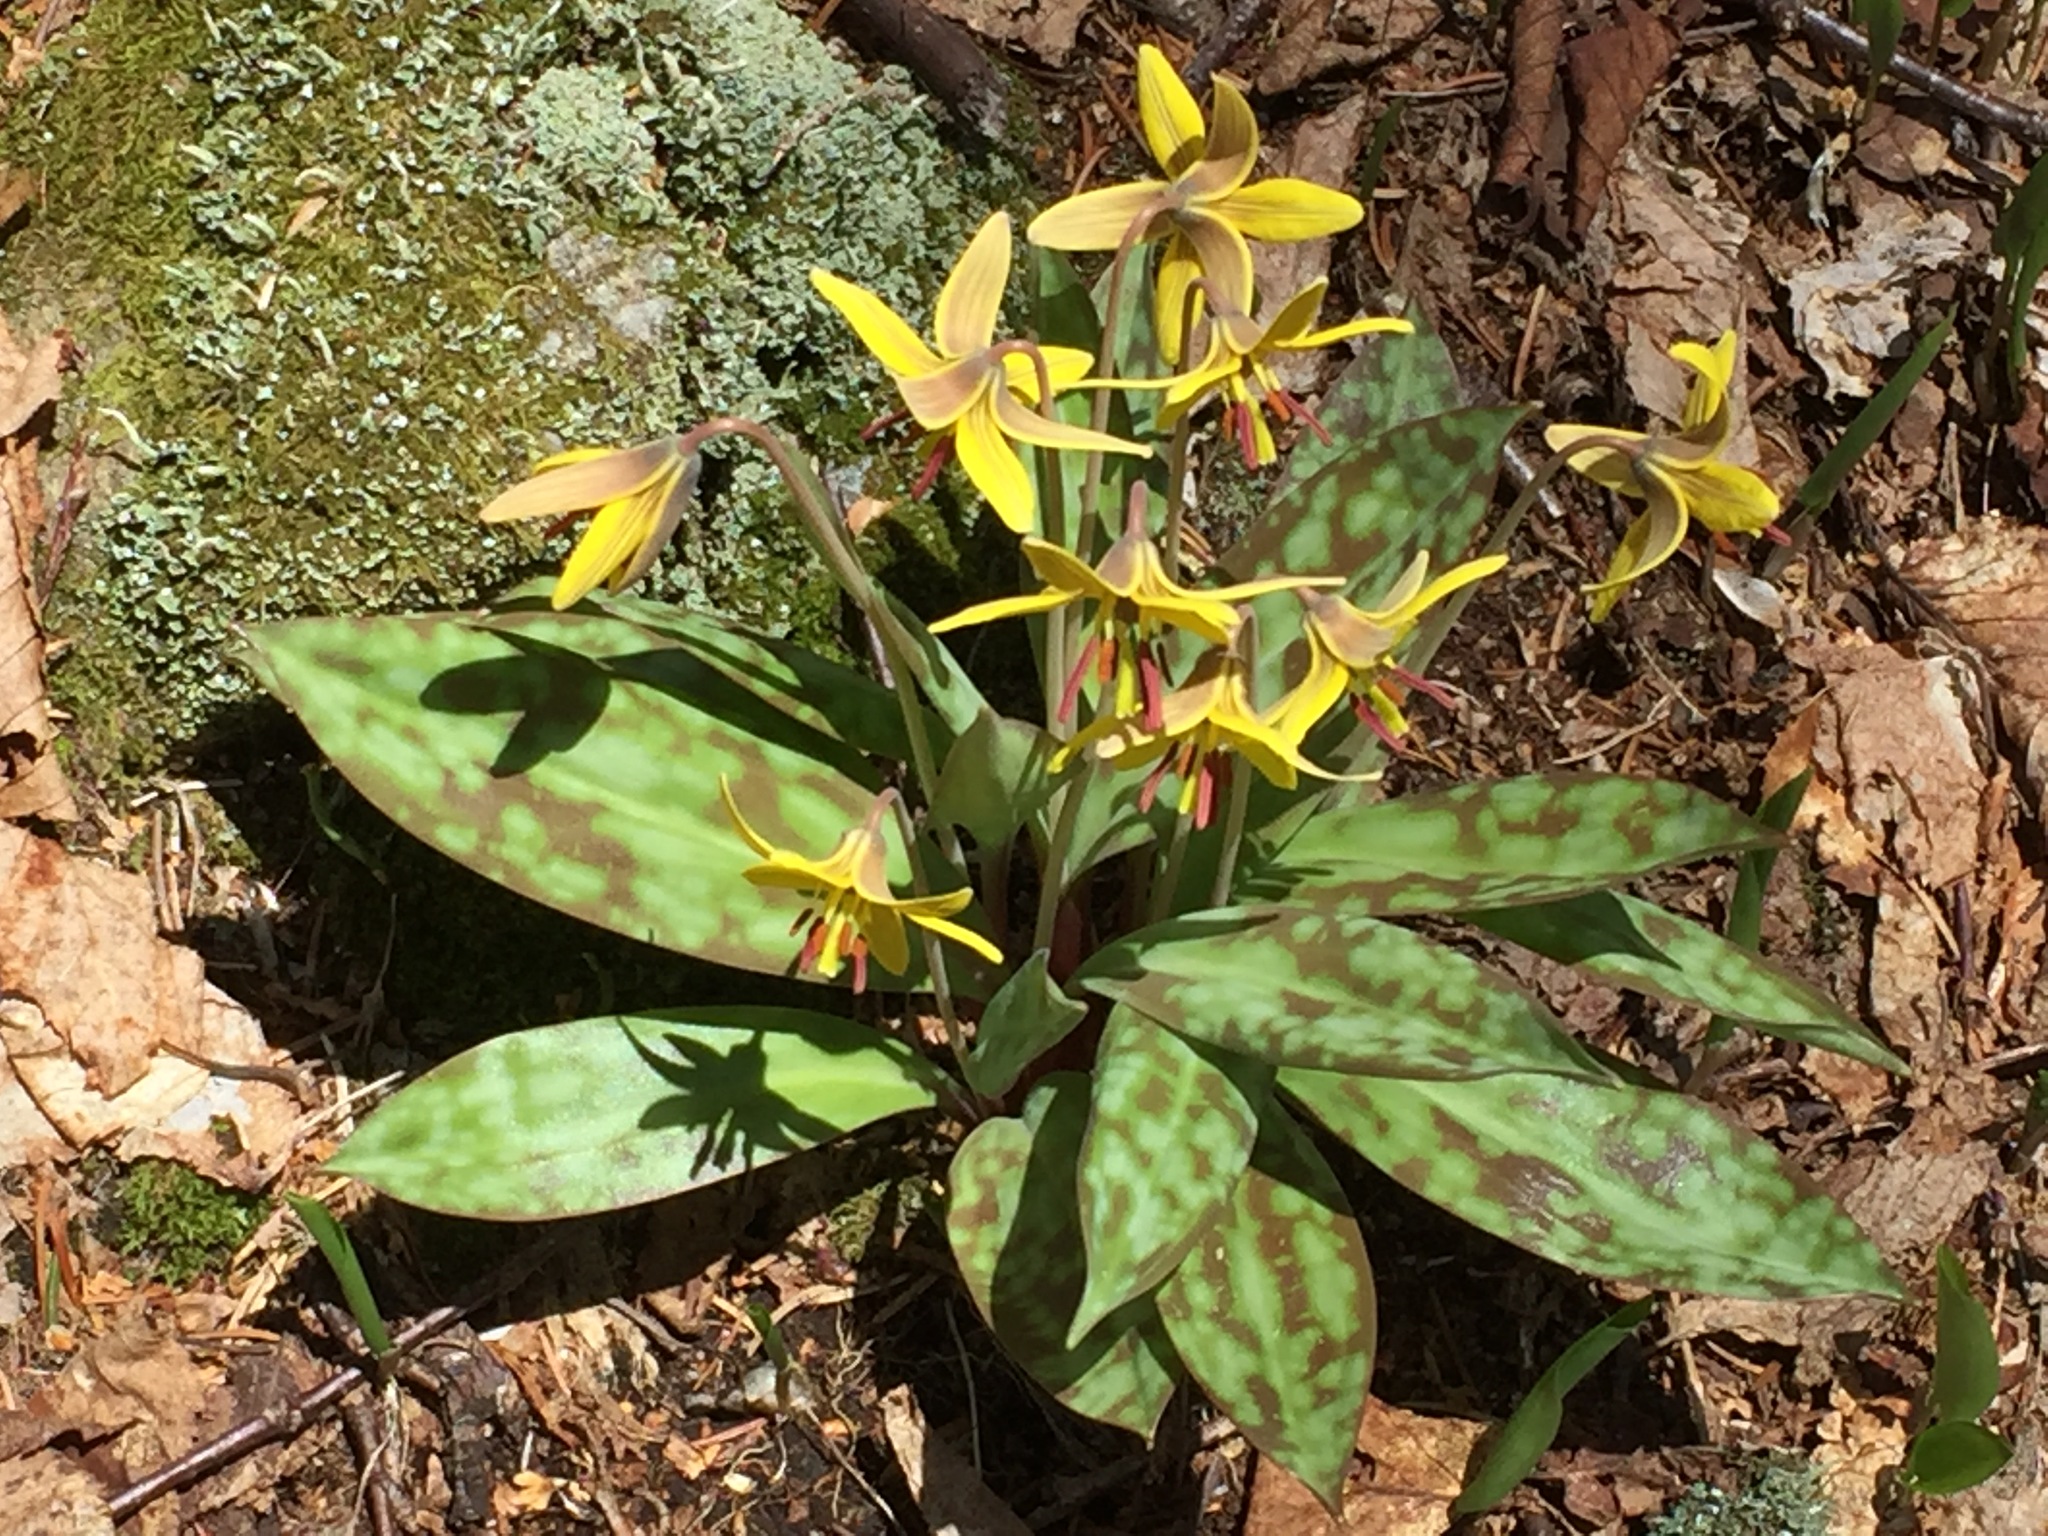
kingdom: Plantae
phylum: Tracheophyta
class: Liliopsida
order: Liliales
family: Liliaceae
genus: Erythronium
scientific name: Erythronium americanum
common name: Yellow adder's-tongue
